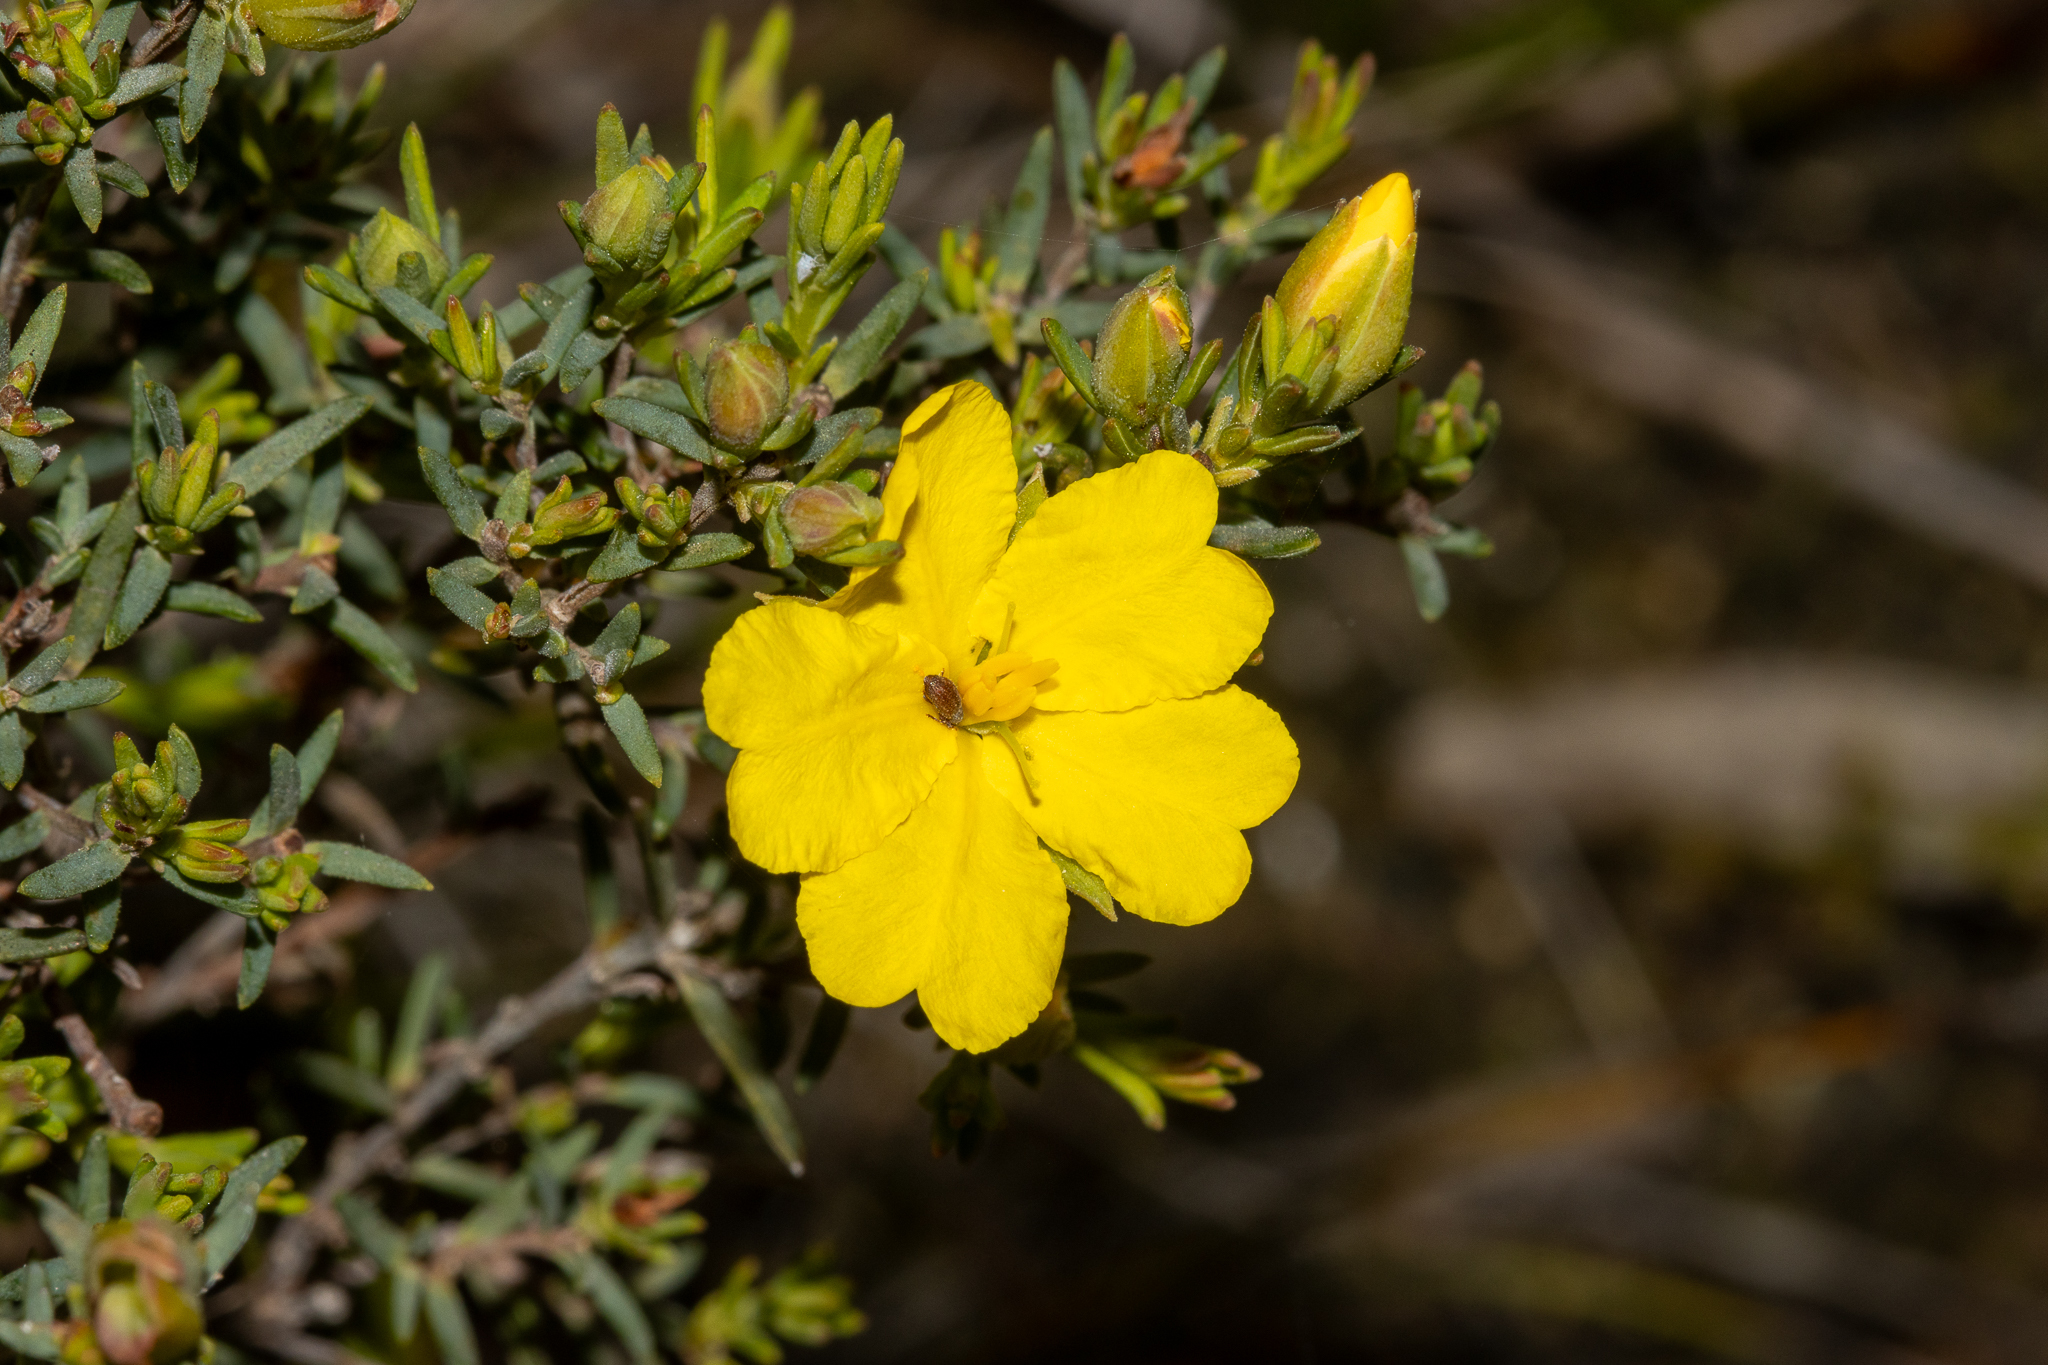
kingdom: Plantae
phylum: Tracheophyta
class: Magnoliopsida
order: Dilleniales
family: Dilleniaceae
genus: Hibbertia
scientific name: Hibbertia devitata
